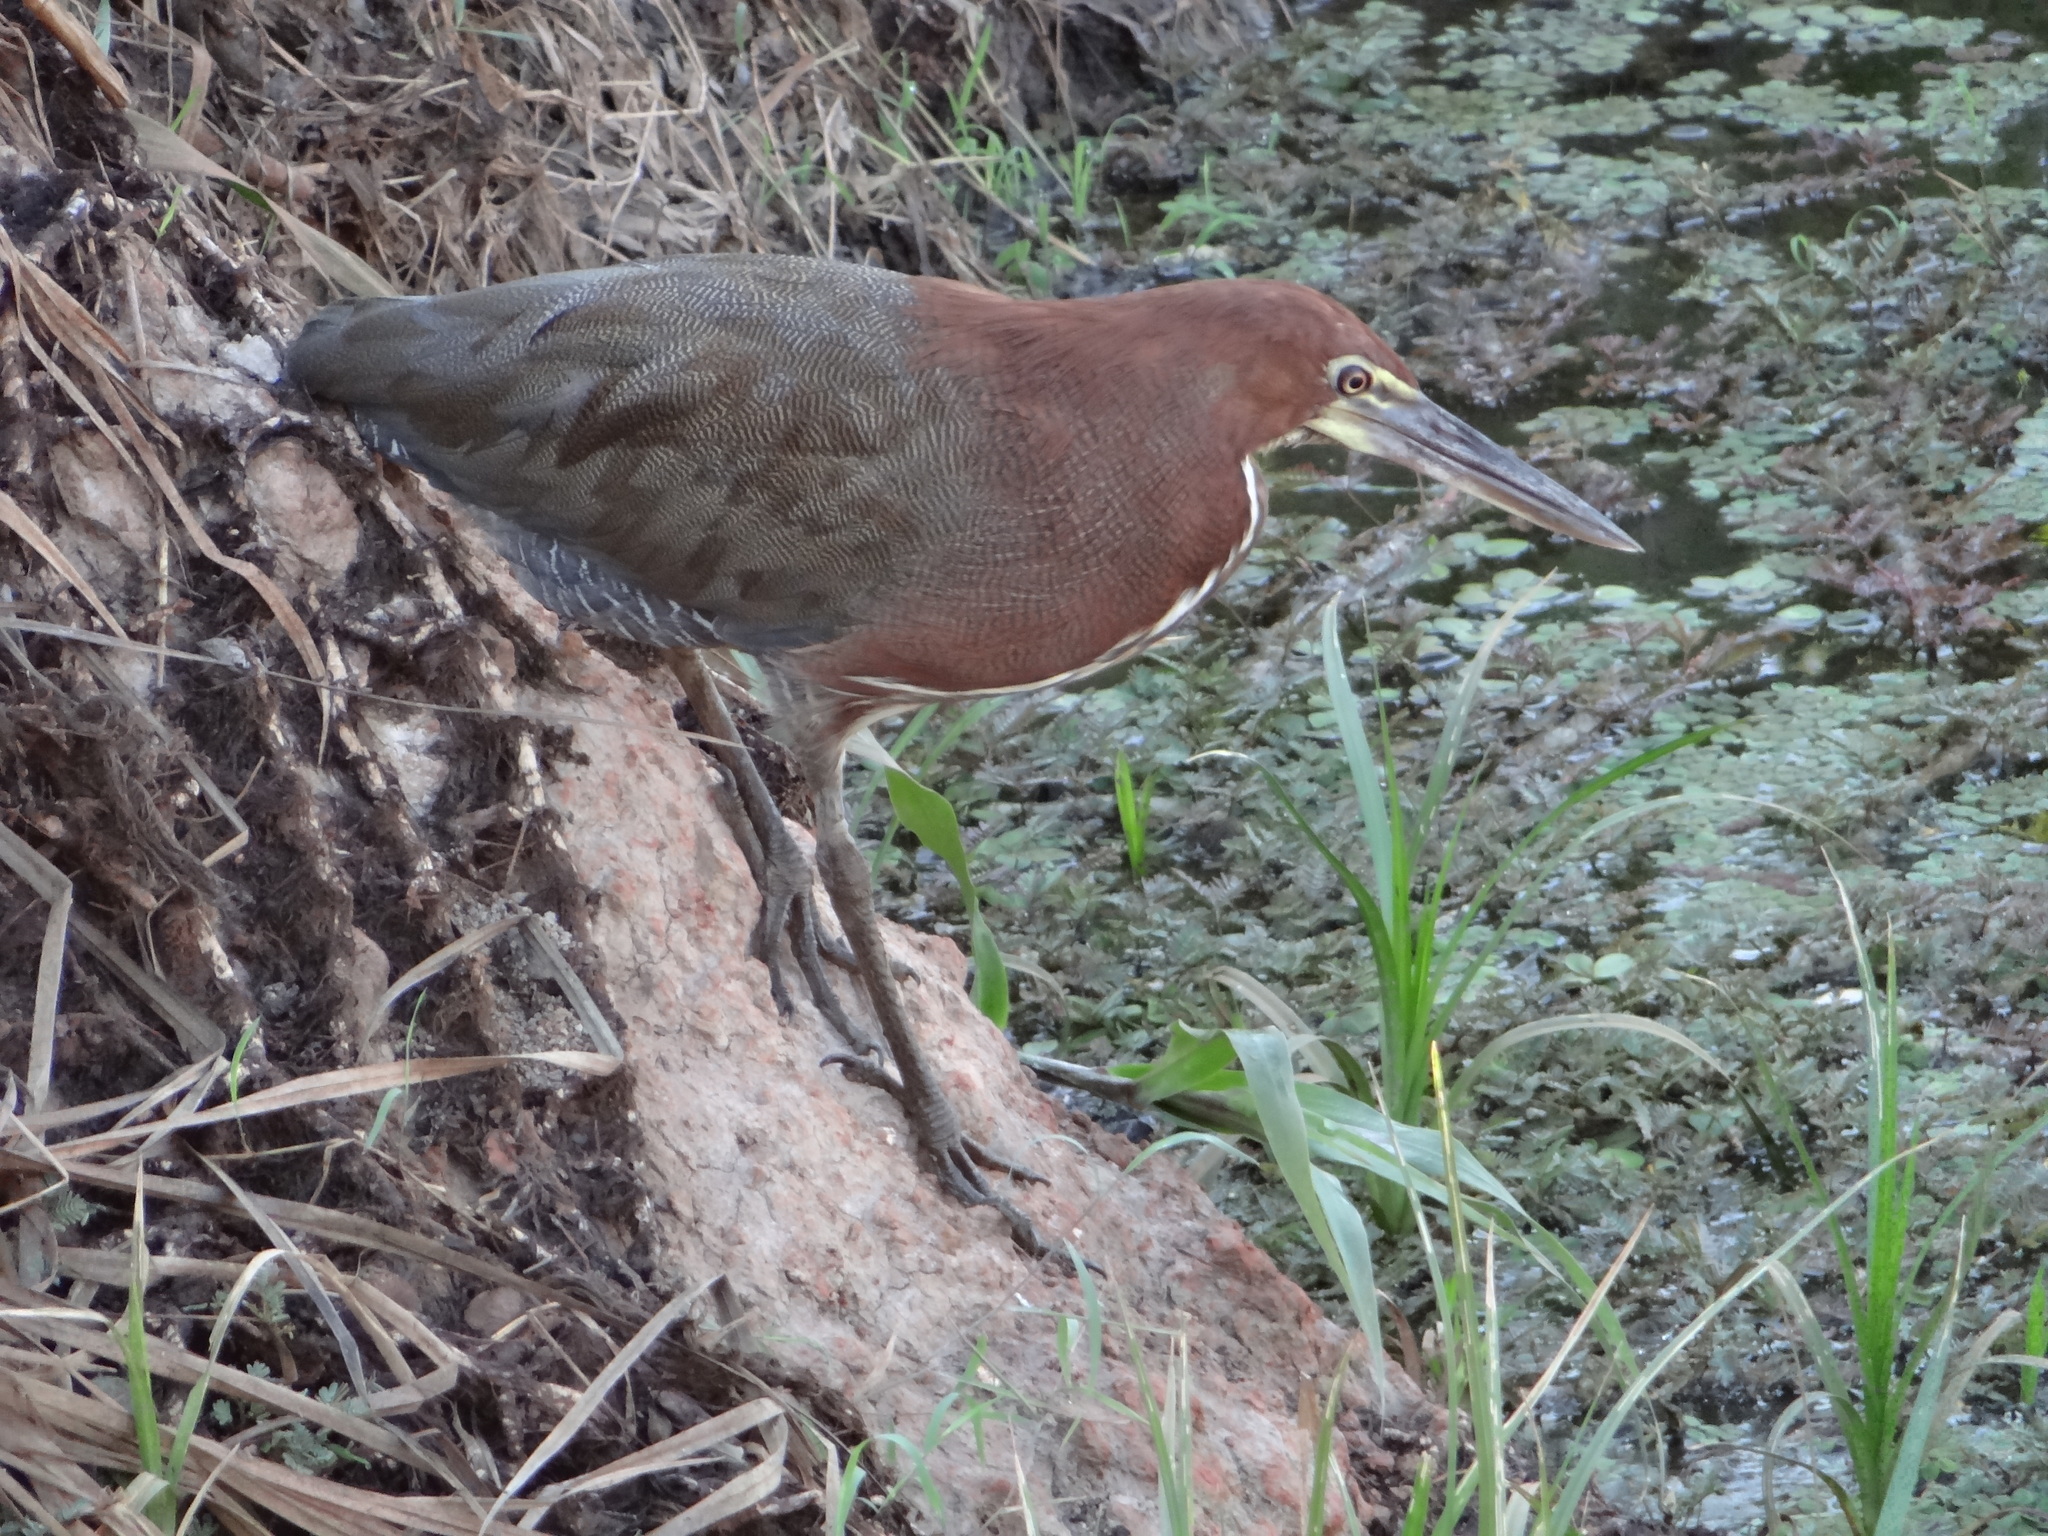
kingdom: Animalia
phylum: Chordata
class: Aves
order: Pelecaniformes
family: Ardeidae
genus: Tigrisoma
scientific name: Tigrisoma lineatum
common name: Rufescent tiger-heron
